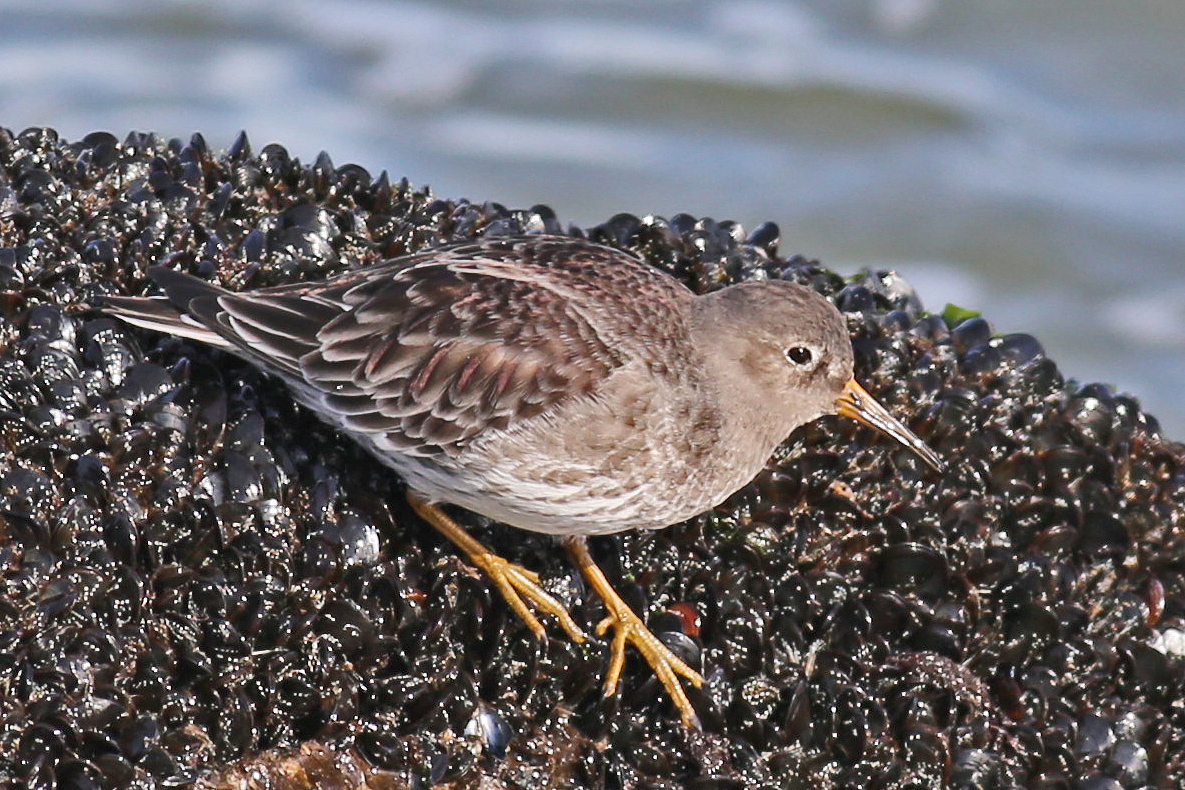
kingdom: Animalia
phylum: Chordata
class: Aves
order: Charadriiformes
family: Scolopacidae
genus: Calidris
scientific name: Calidris maritima
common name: Purple sandpiper
